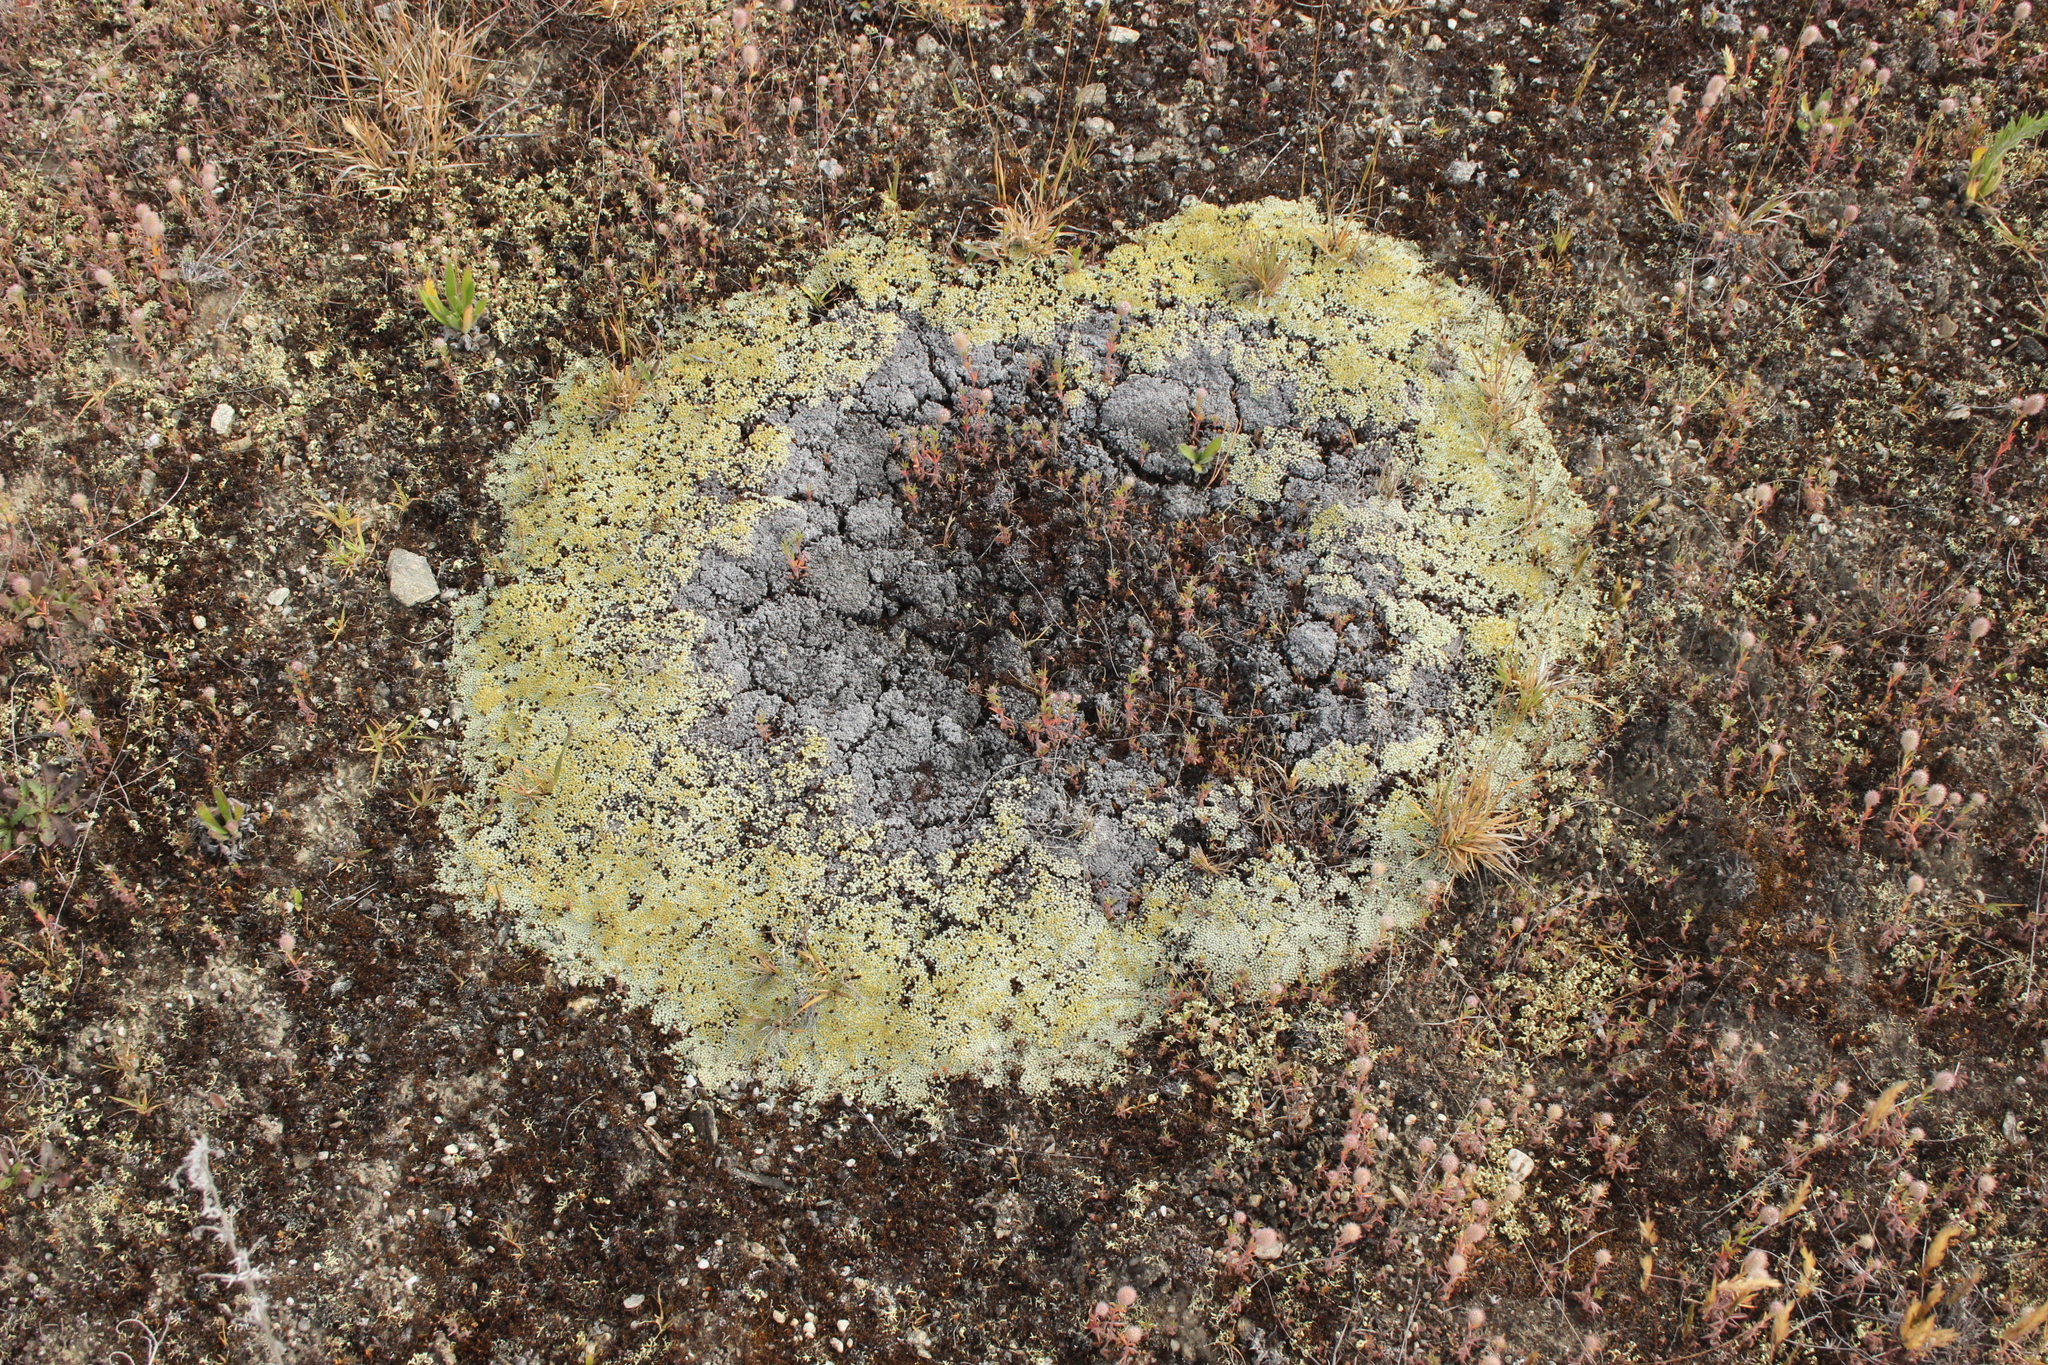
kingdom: Plantae
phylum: Tracheophyta
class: Magnoliopsida
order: Asterales
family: Asteraceae
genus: Raoulia
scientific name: Raoulia australis
